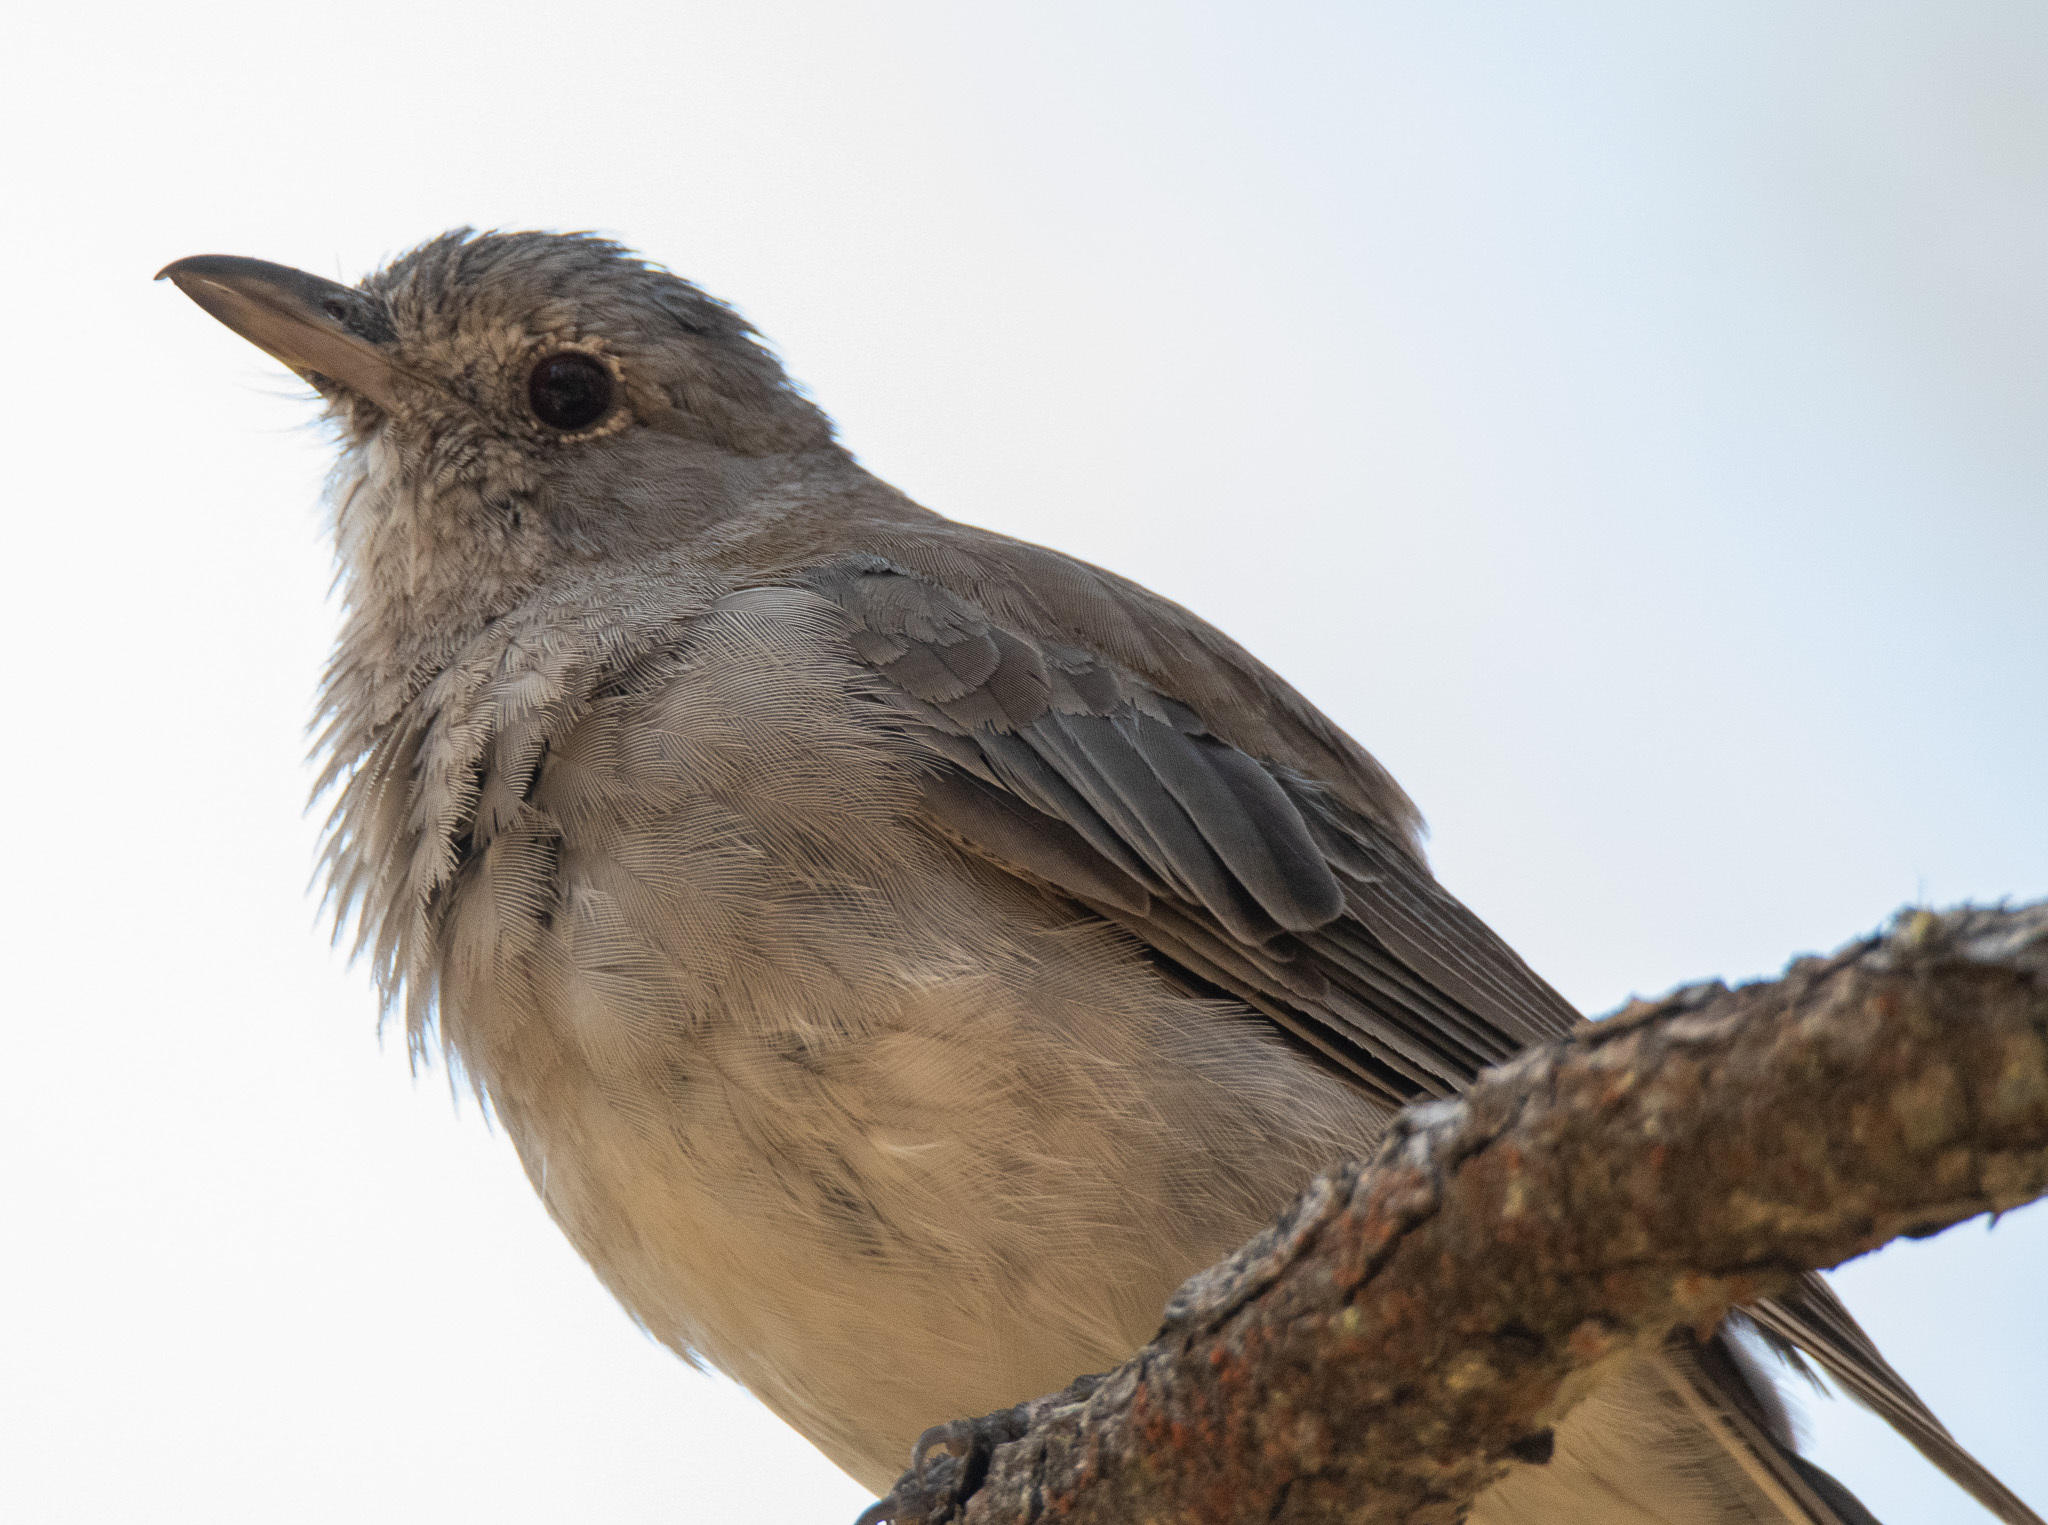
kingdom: Animalia
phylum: Chordata
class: Aves
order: Passeriformes
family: Pachycephalidae
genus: Colluricincla
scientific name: Colluricincla harmonica
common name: Grey shrikethrush
